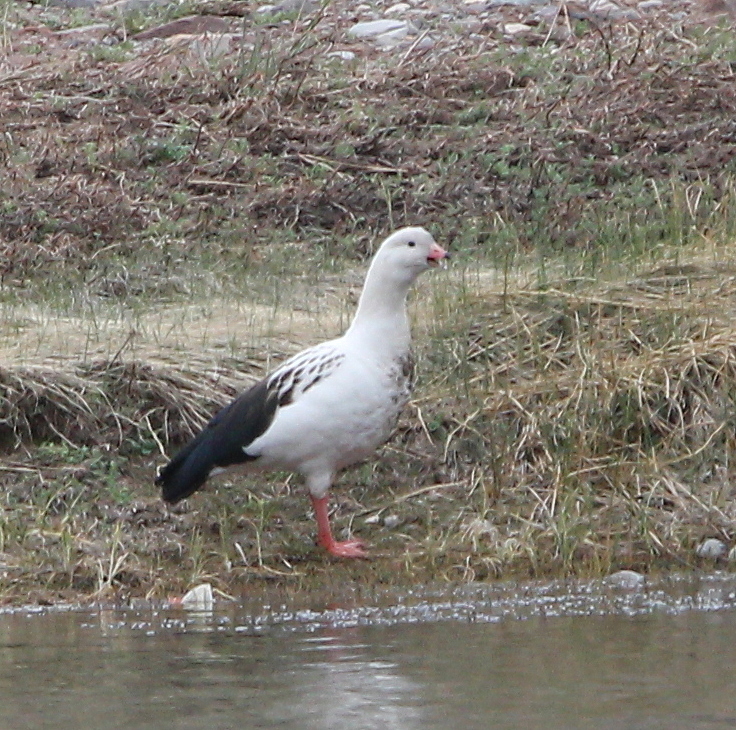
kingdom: Animalia
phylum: Chordata
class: Aves
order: Anseriformes
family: Anatidae
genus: Chloephaga
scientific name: Chloephaga melanoptera
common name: Andean goose
